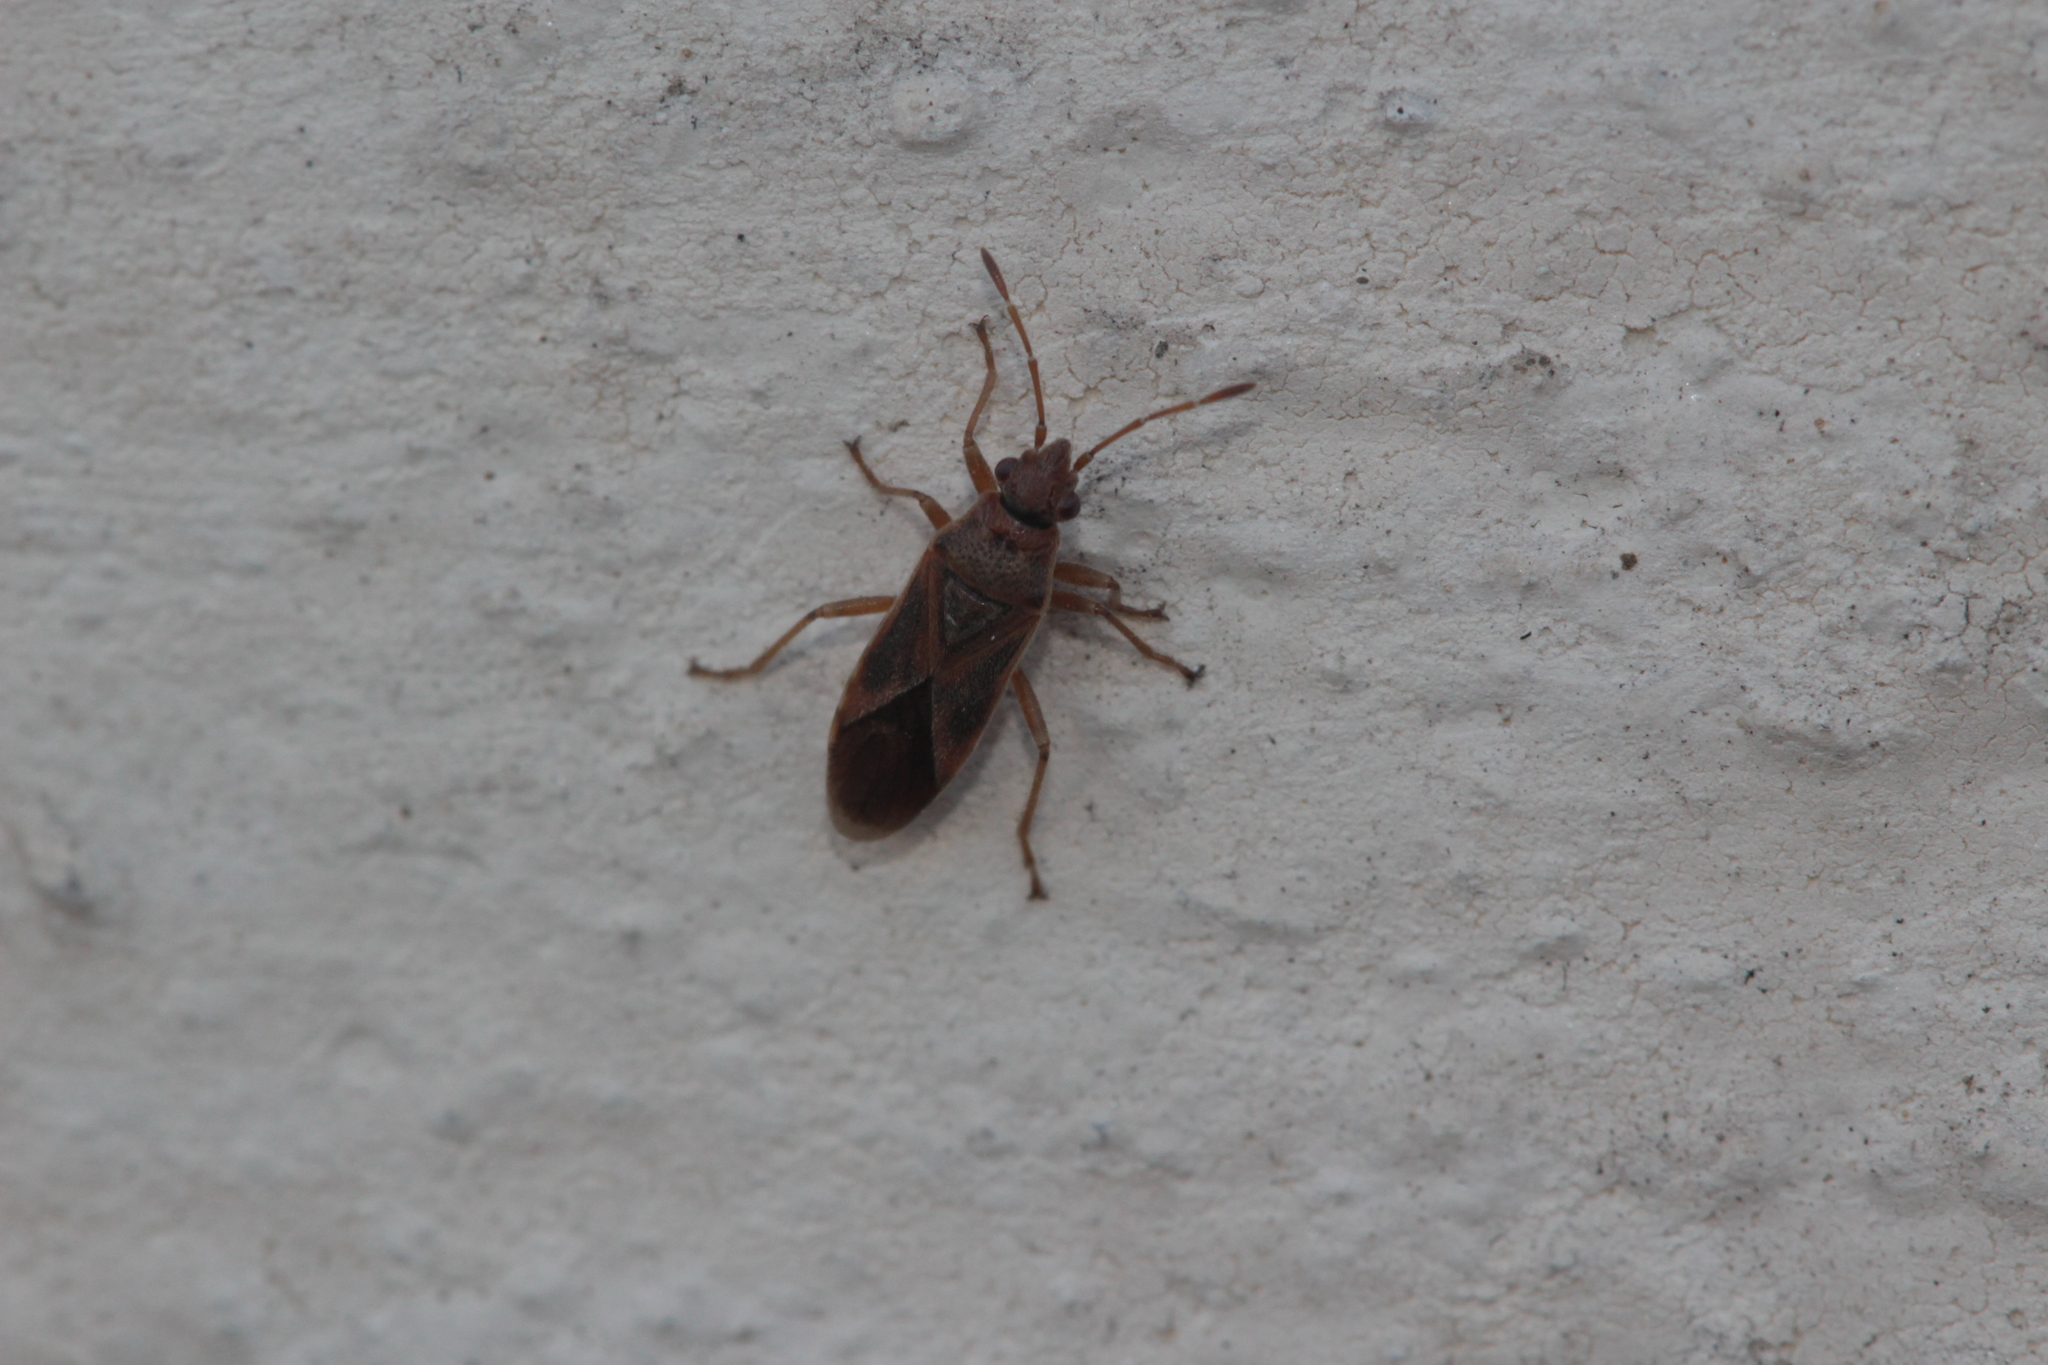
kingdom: Animalia
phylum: Arthropoda
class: Insecta
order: Hemiptera
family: Lygaeidae
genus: Arocatus
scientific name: Arocatus roeselii
